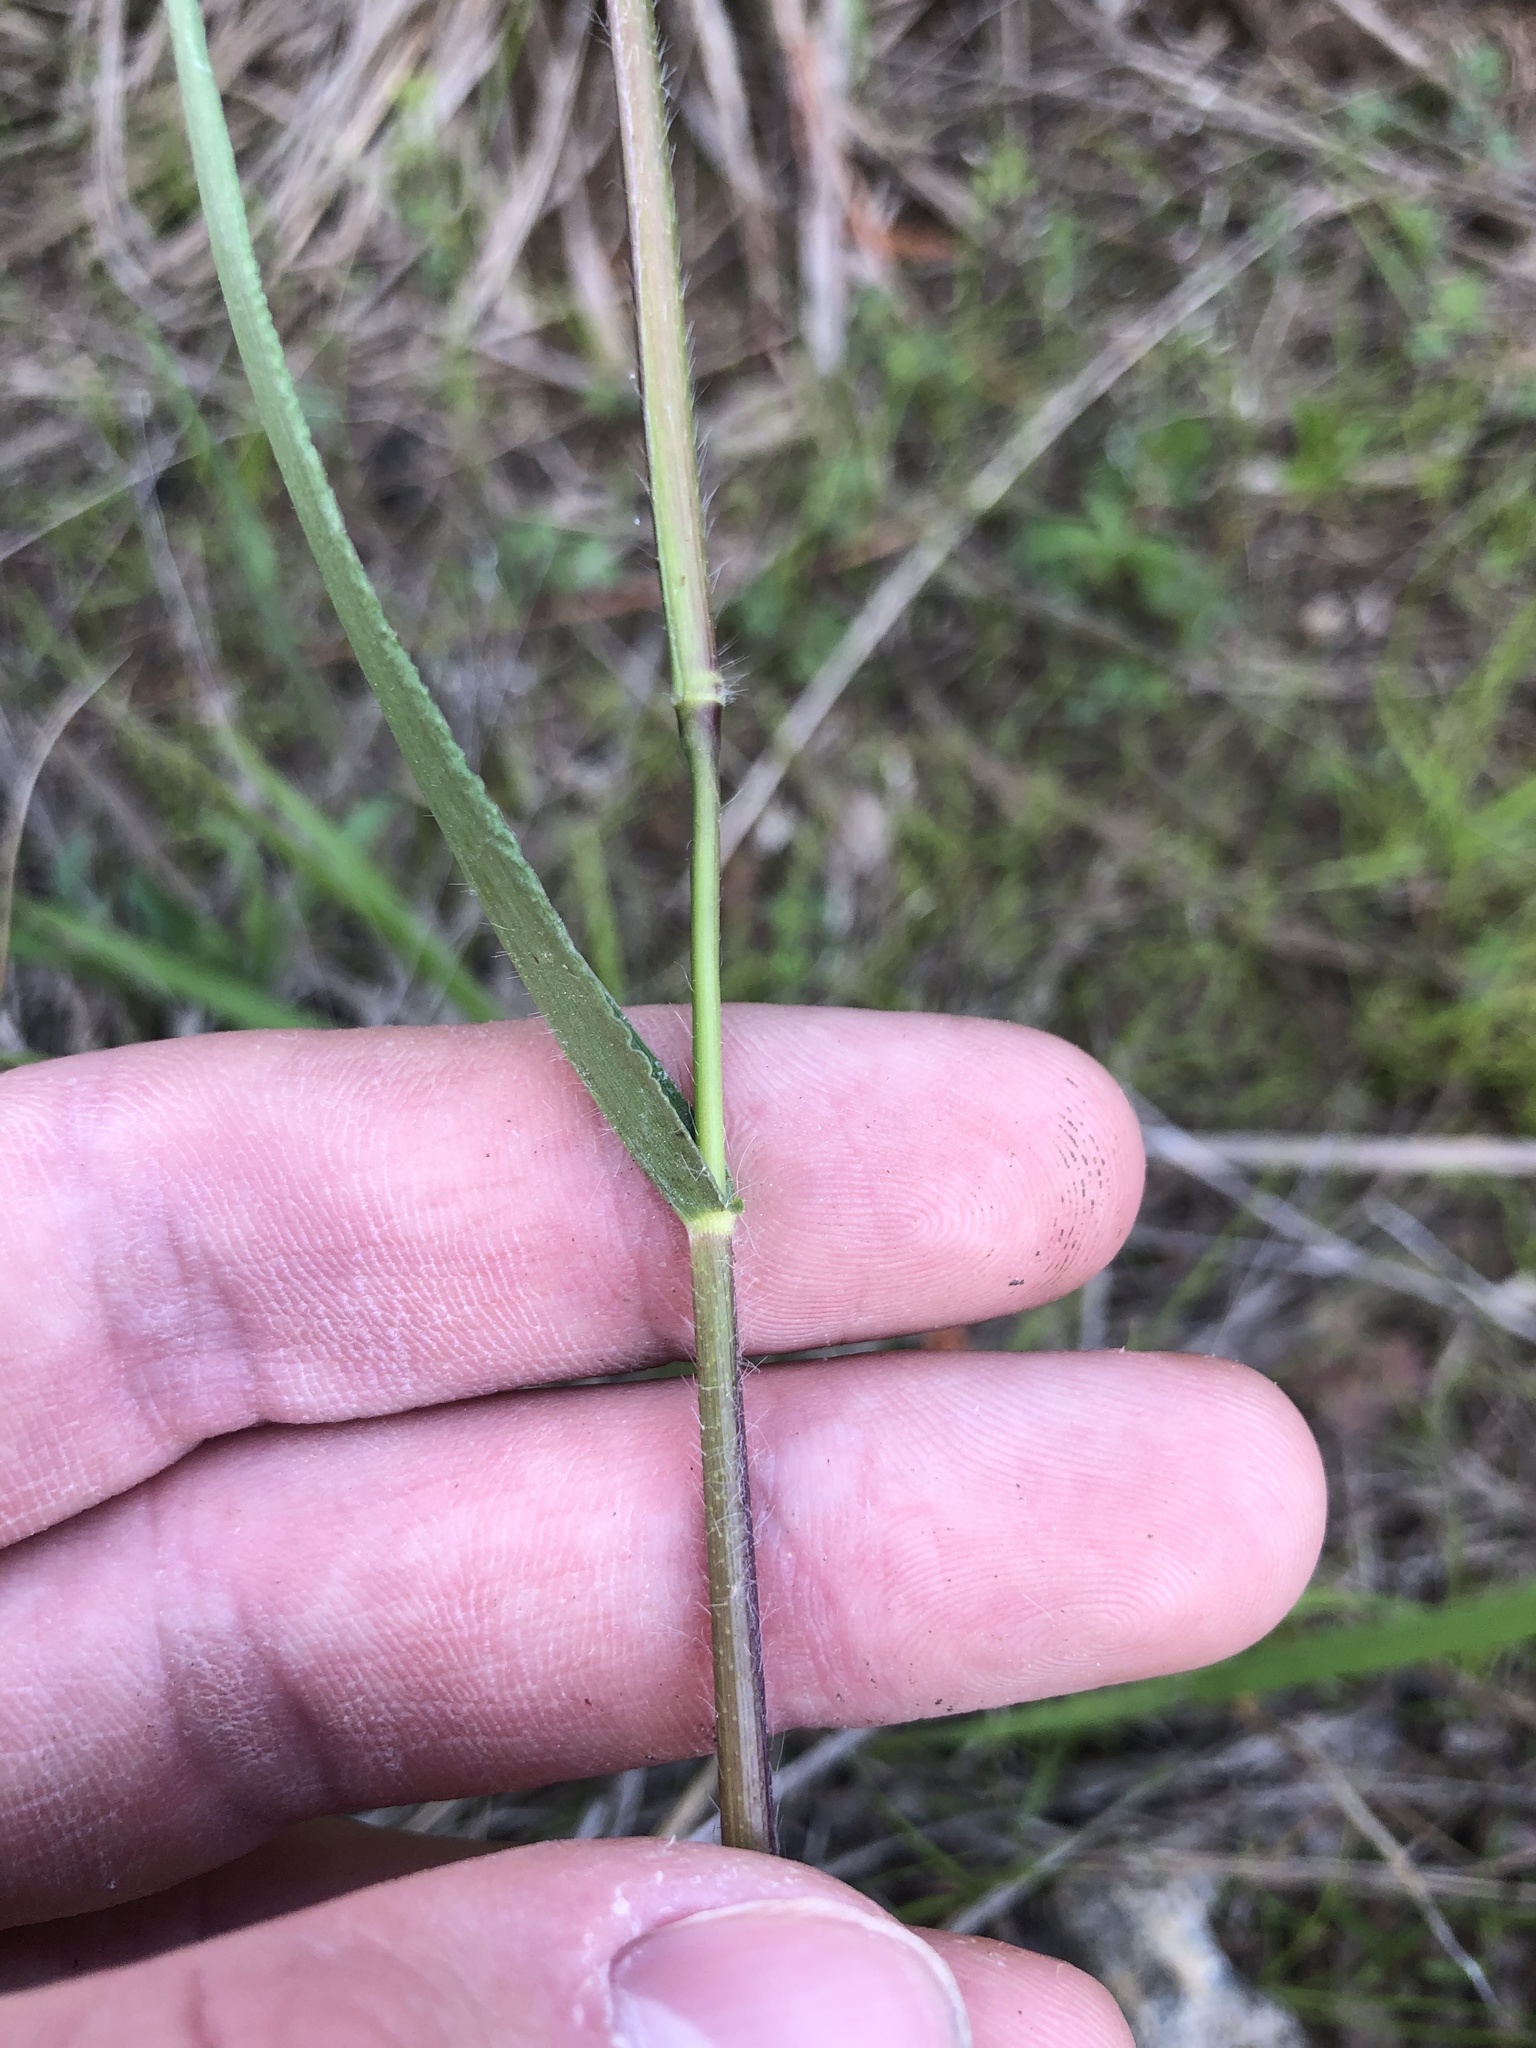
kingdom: Plantae
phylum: Tracheophyta
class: Liliopsida
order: Poales
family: Poaceae
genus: Dichanthelium
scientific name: Dichanthelium scribnerianum
